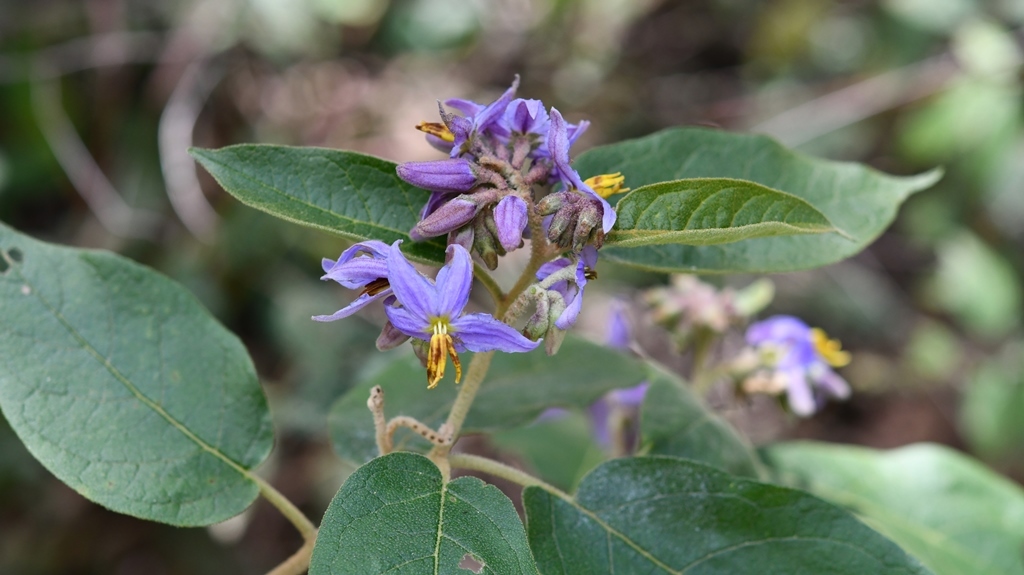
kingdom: Plantae
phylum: Tracheophyta
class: Magnoliopsida
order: Solanales
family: Solanaceae
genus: Solanum
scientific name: Solanum lanceolatum
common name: Orangeberry nightshade
